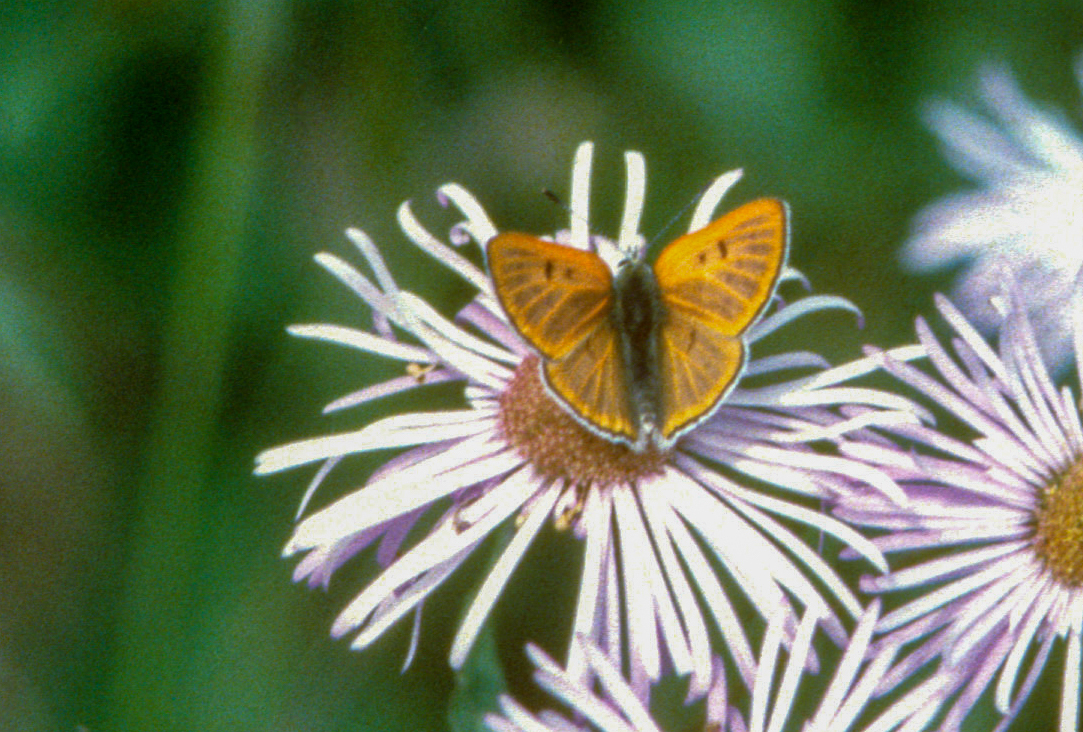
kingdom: Animalia
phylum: Arthropoda
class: Insecta
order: Lepidoptera
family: Lycaenidae
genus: Tharsalea
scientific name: Tharsalea rubidus
